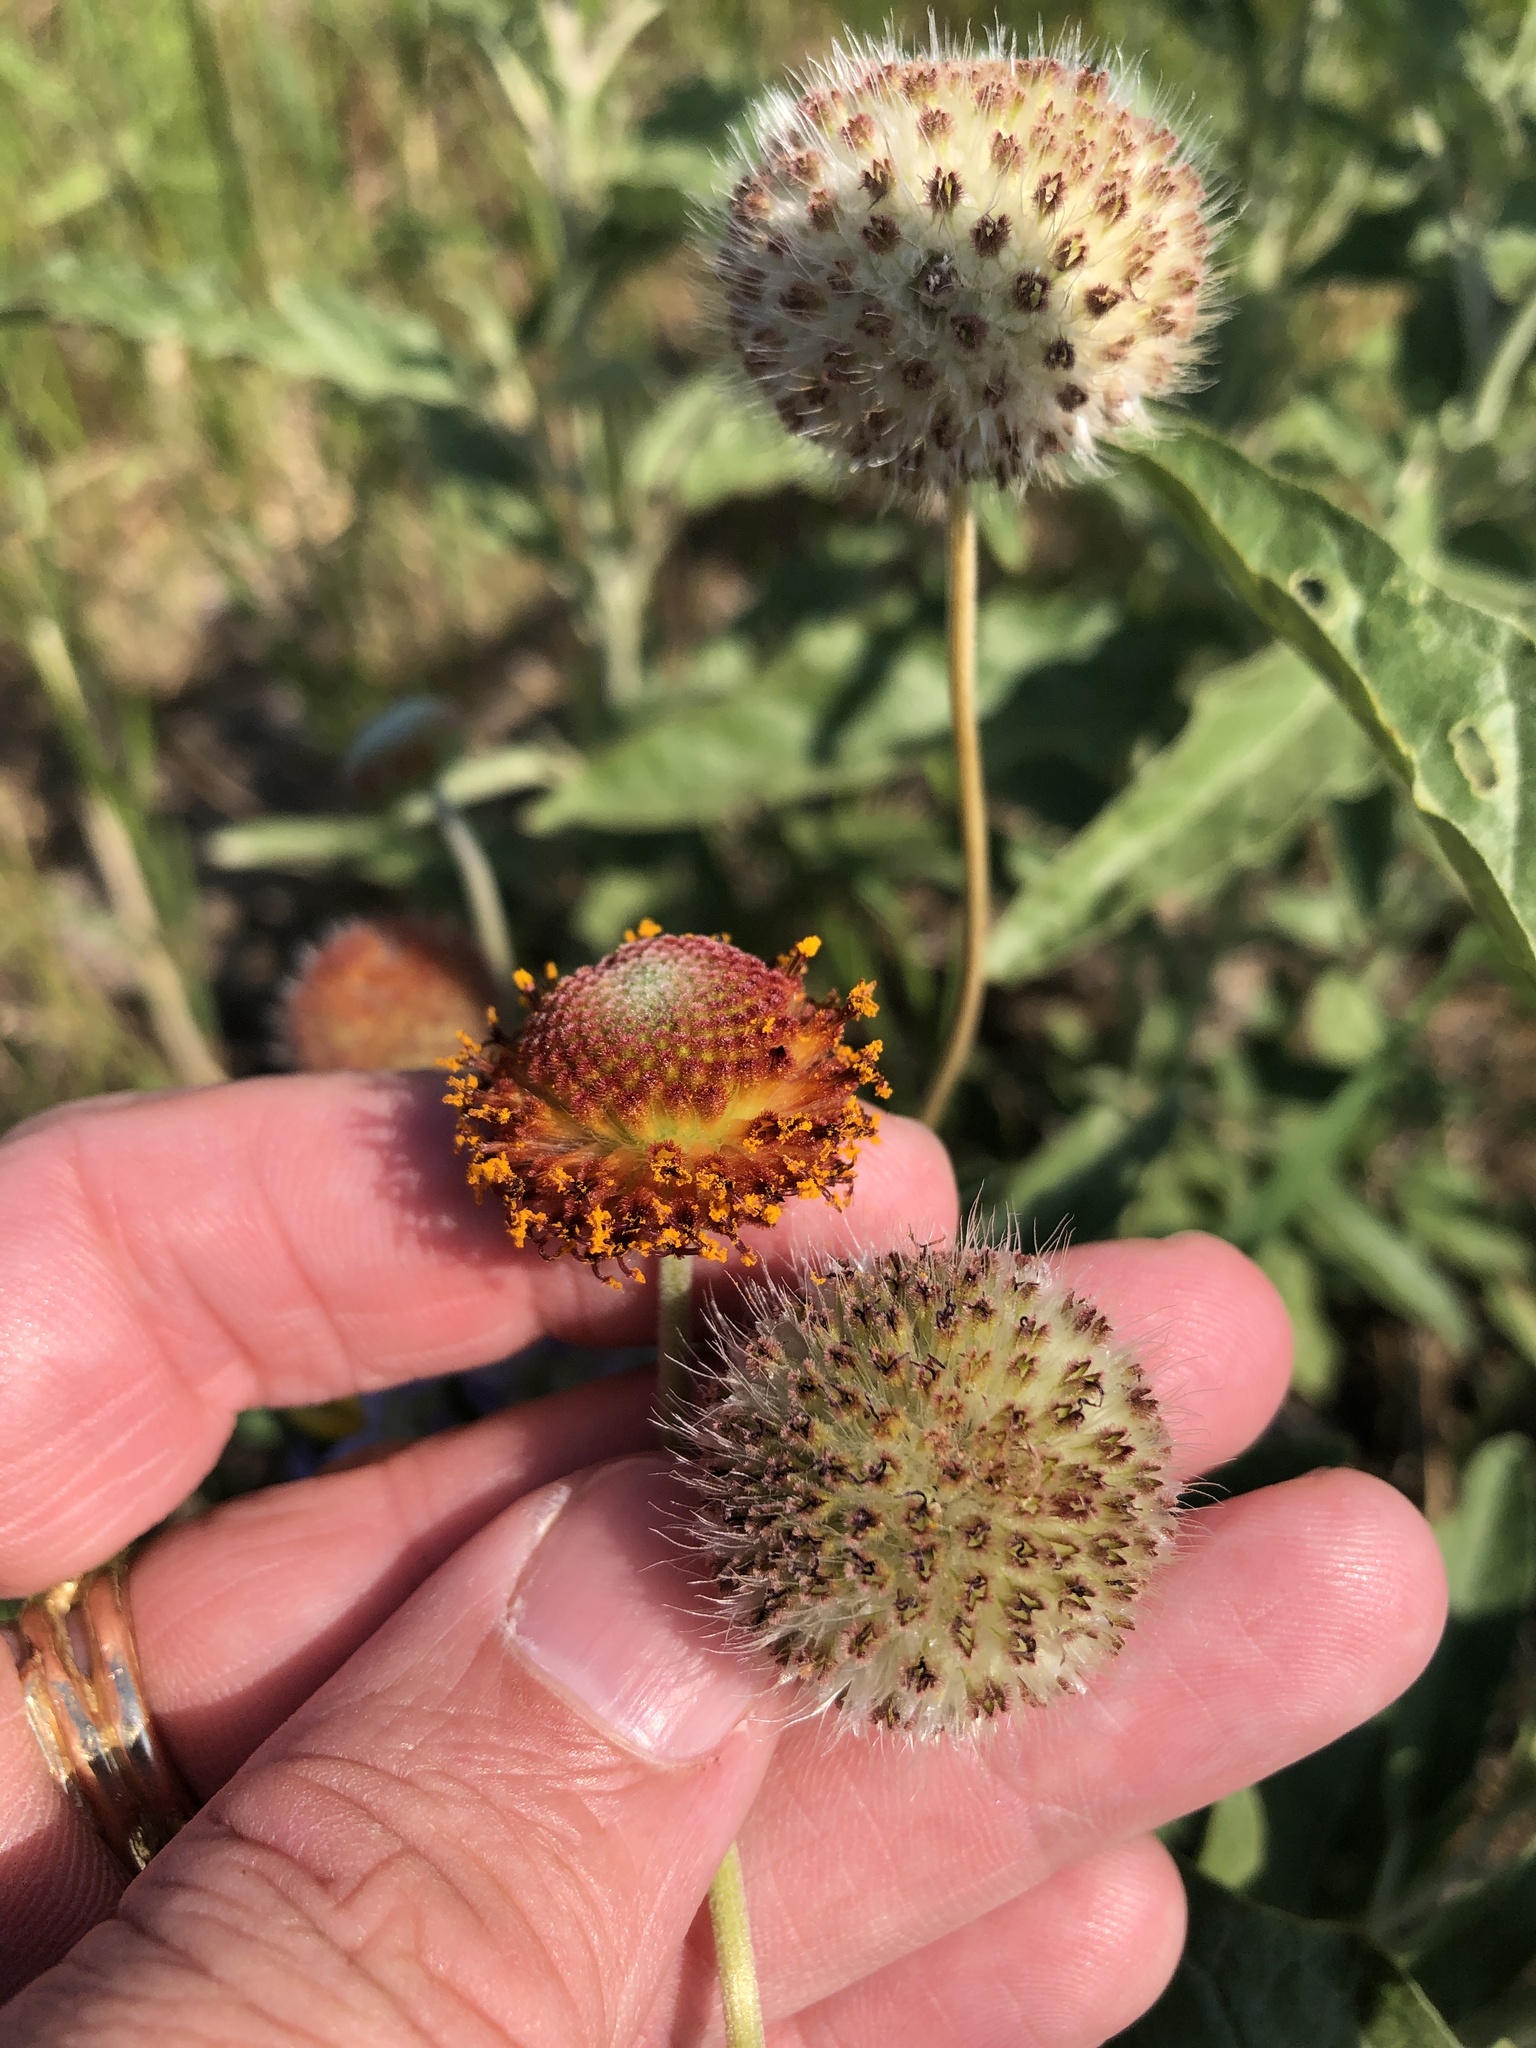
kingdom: Plantae
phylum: Tracheophyta
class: Magnoliopsida
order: Asterales
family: Asteraceae
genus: Gaillardia
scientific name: Gaillardia suavis
